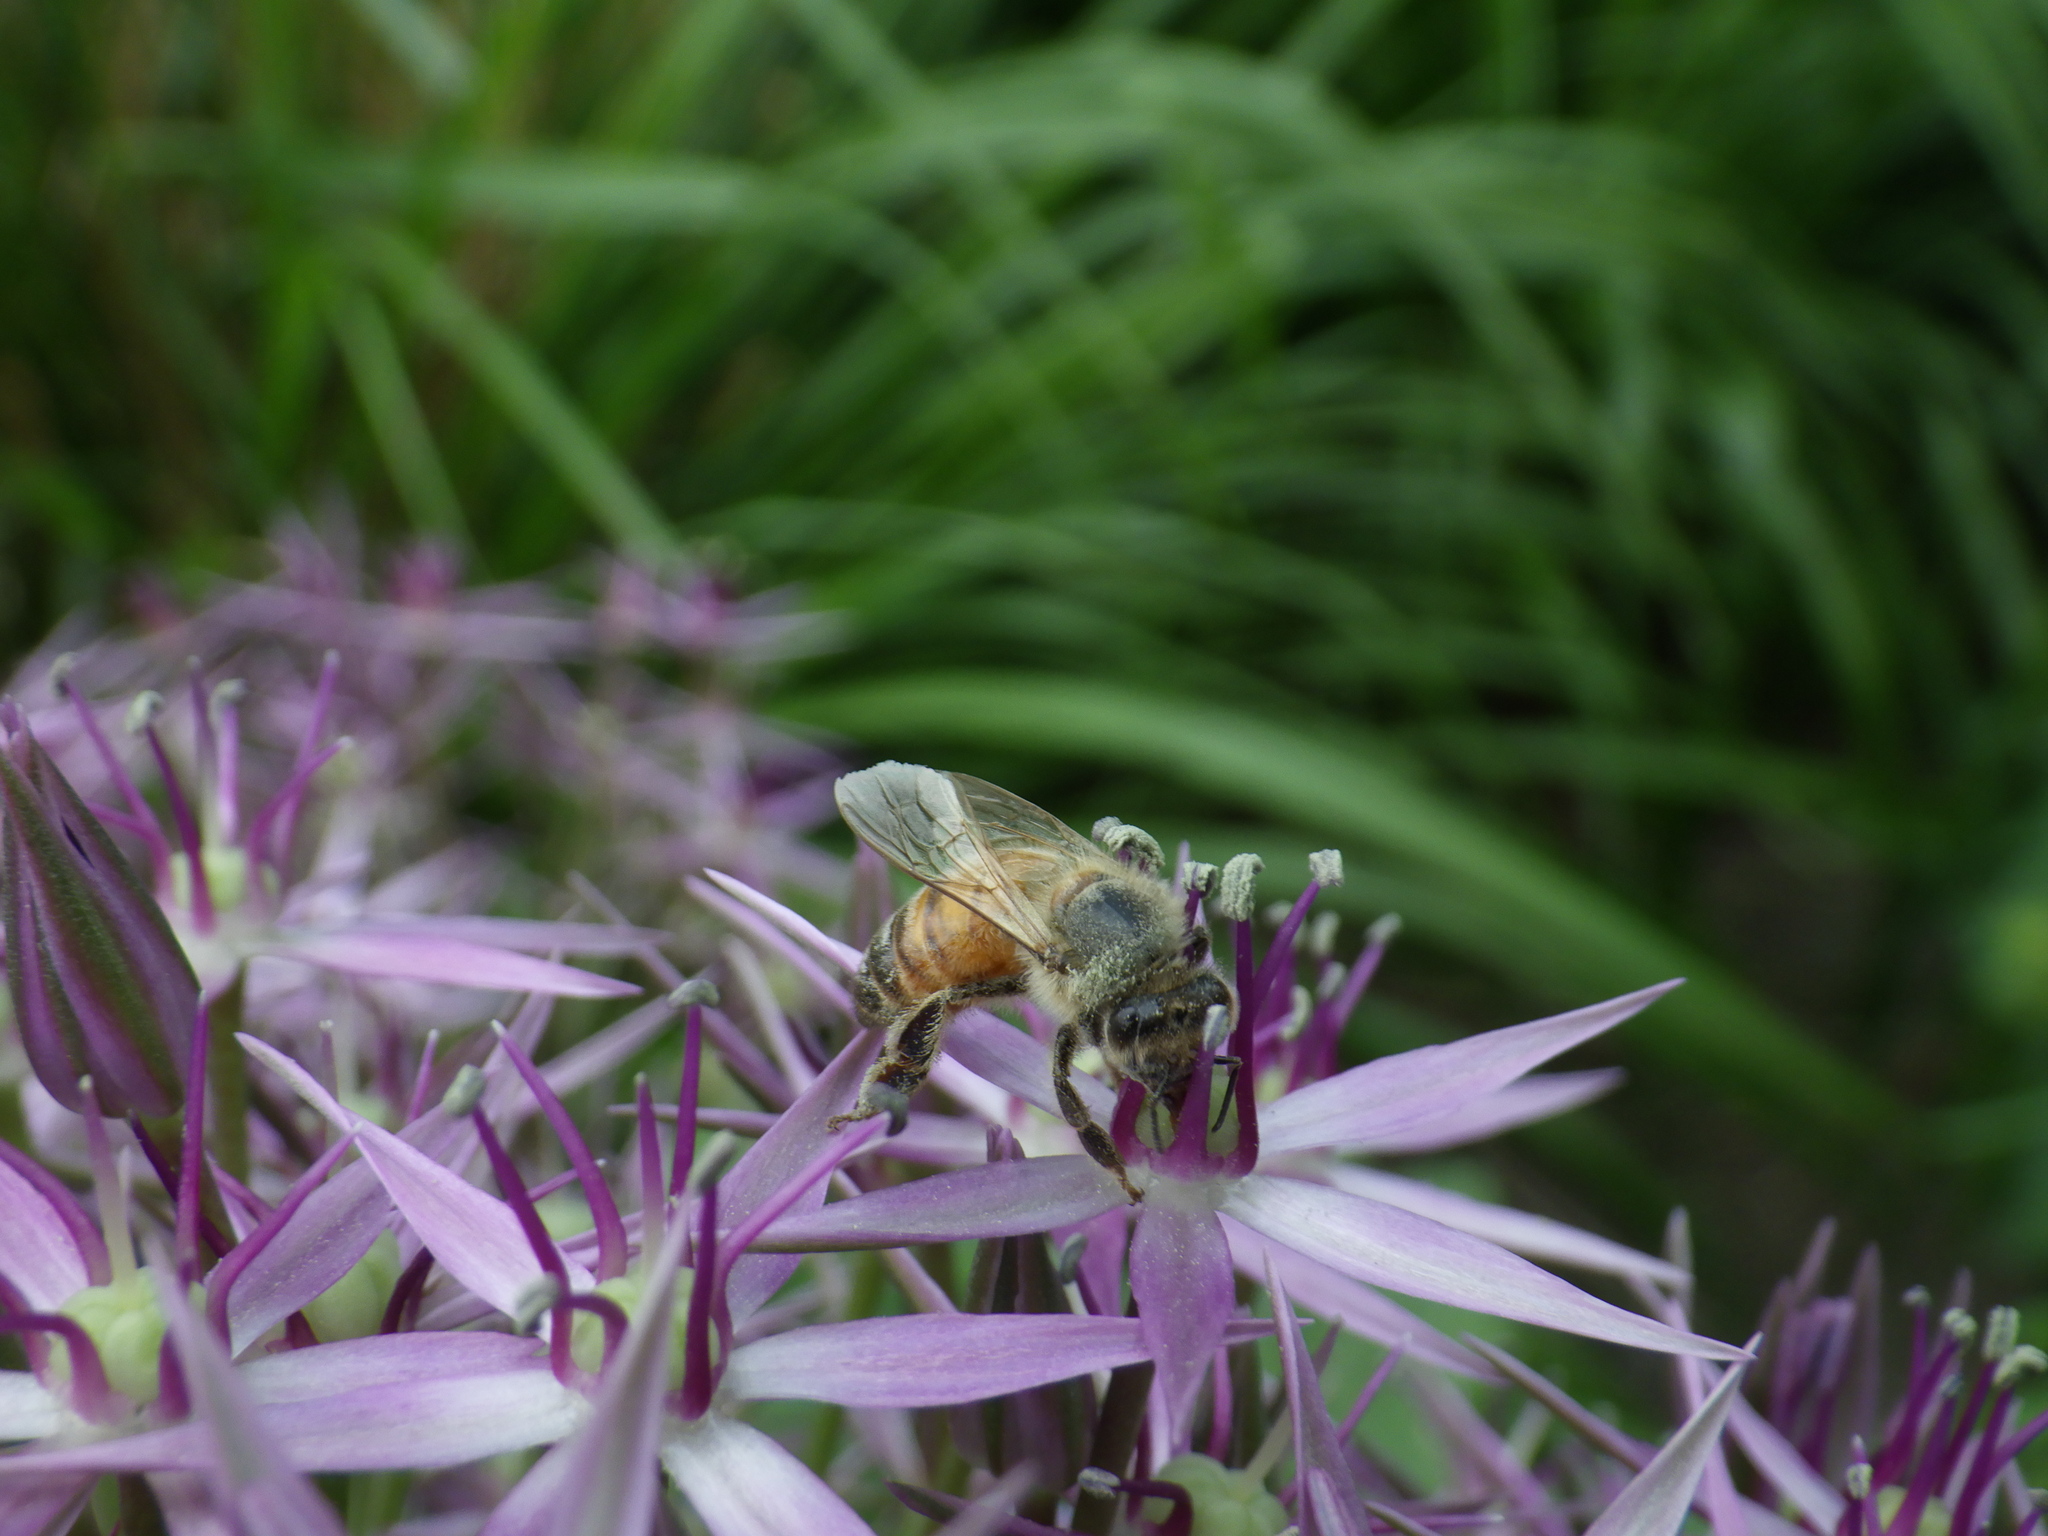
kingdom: Animalia
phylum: Arthropoda
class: Insecta
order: Hymenoptera
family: Apidae
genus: Apis
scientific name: Apis mellifera
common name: Honey bee
